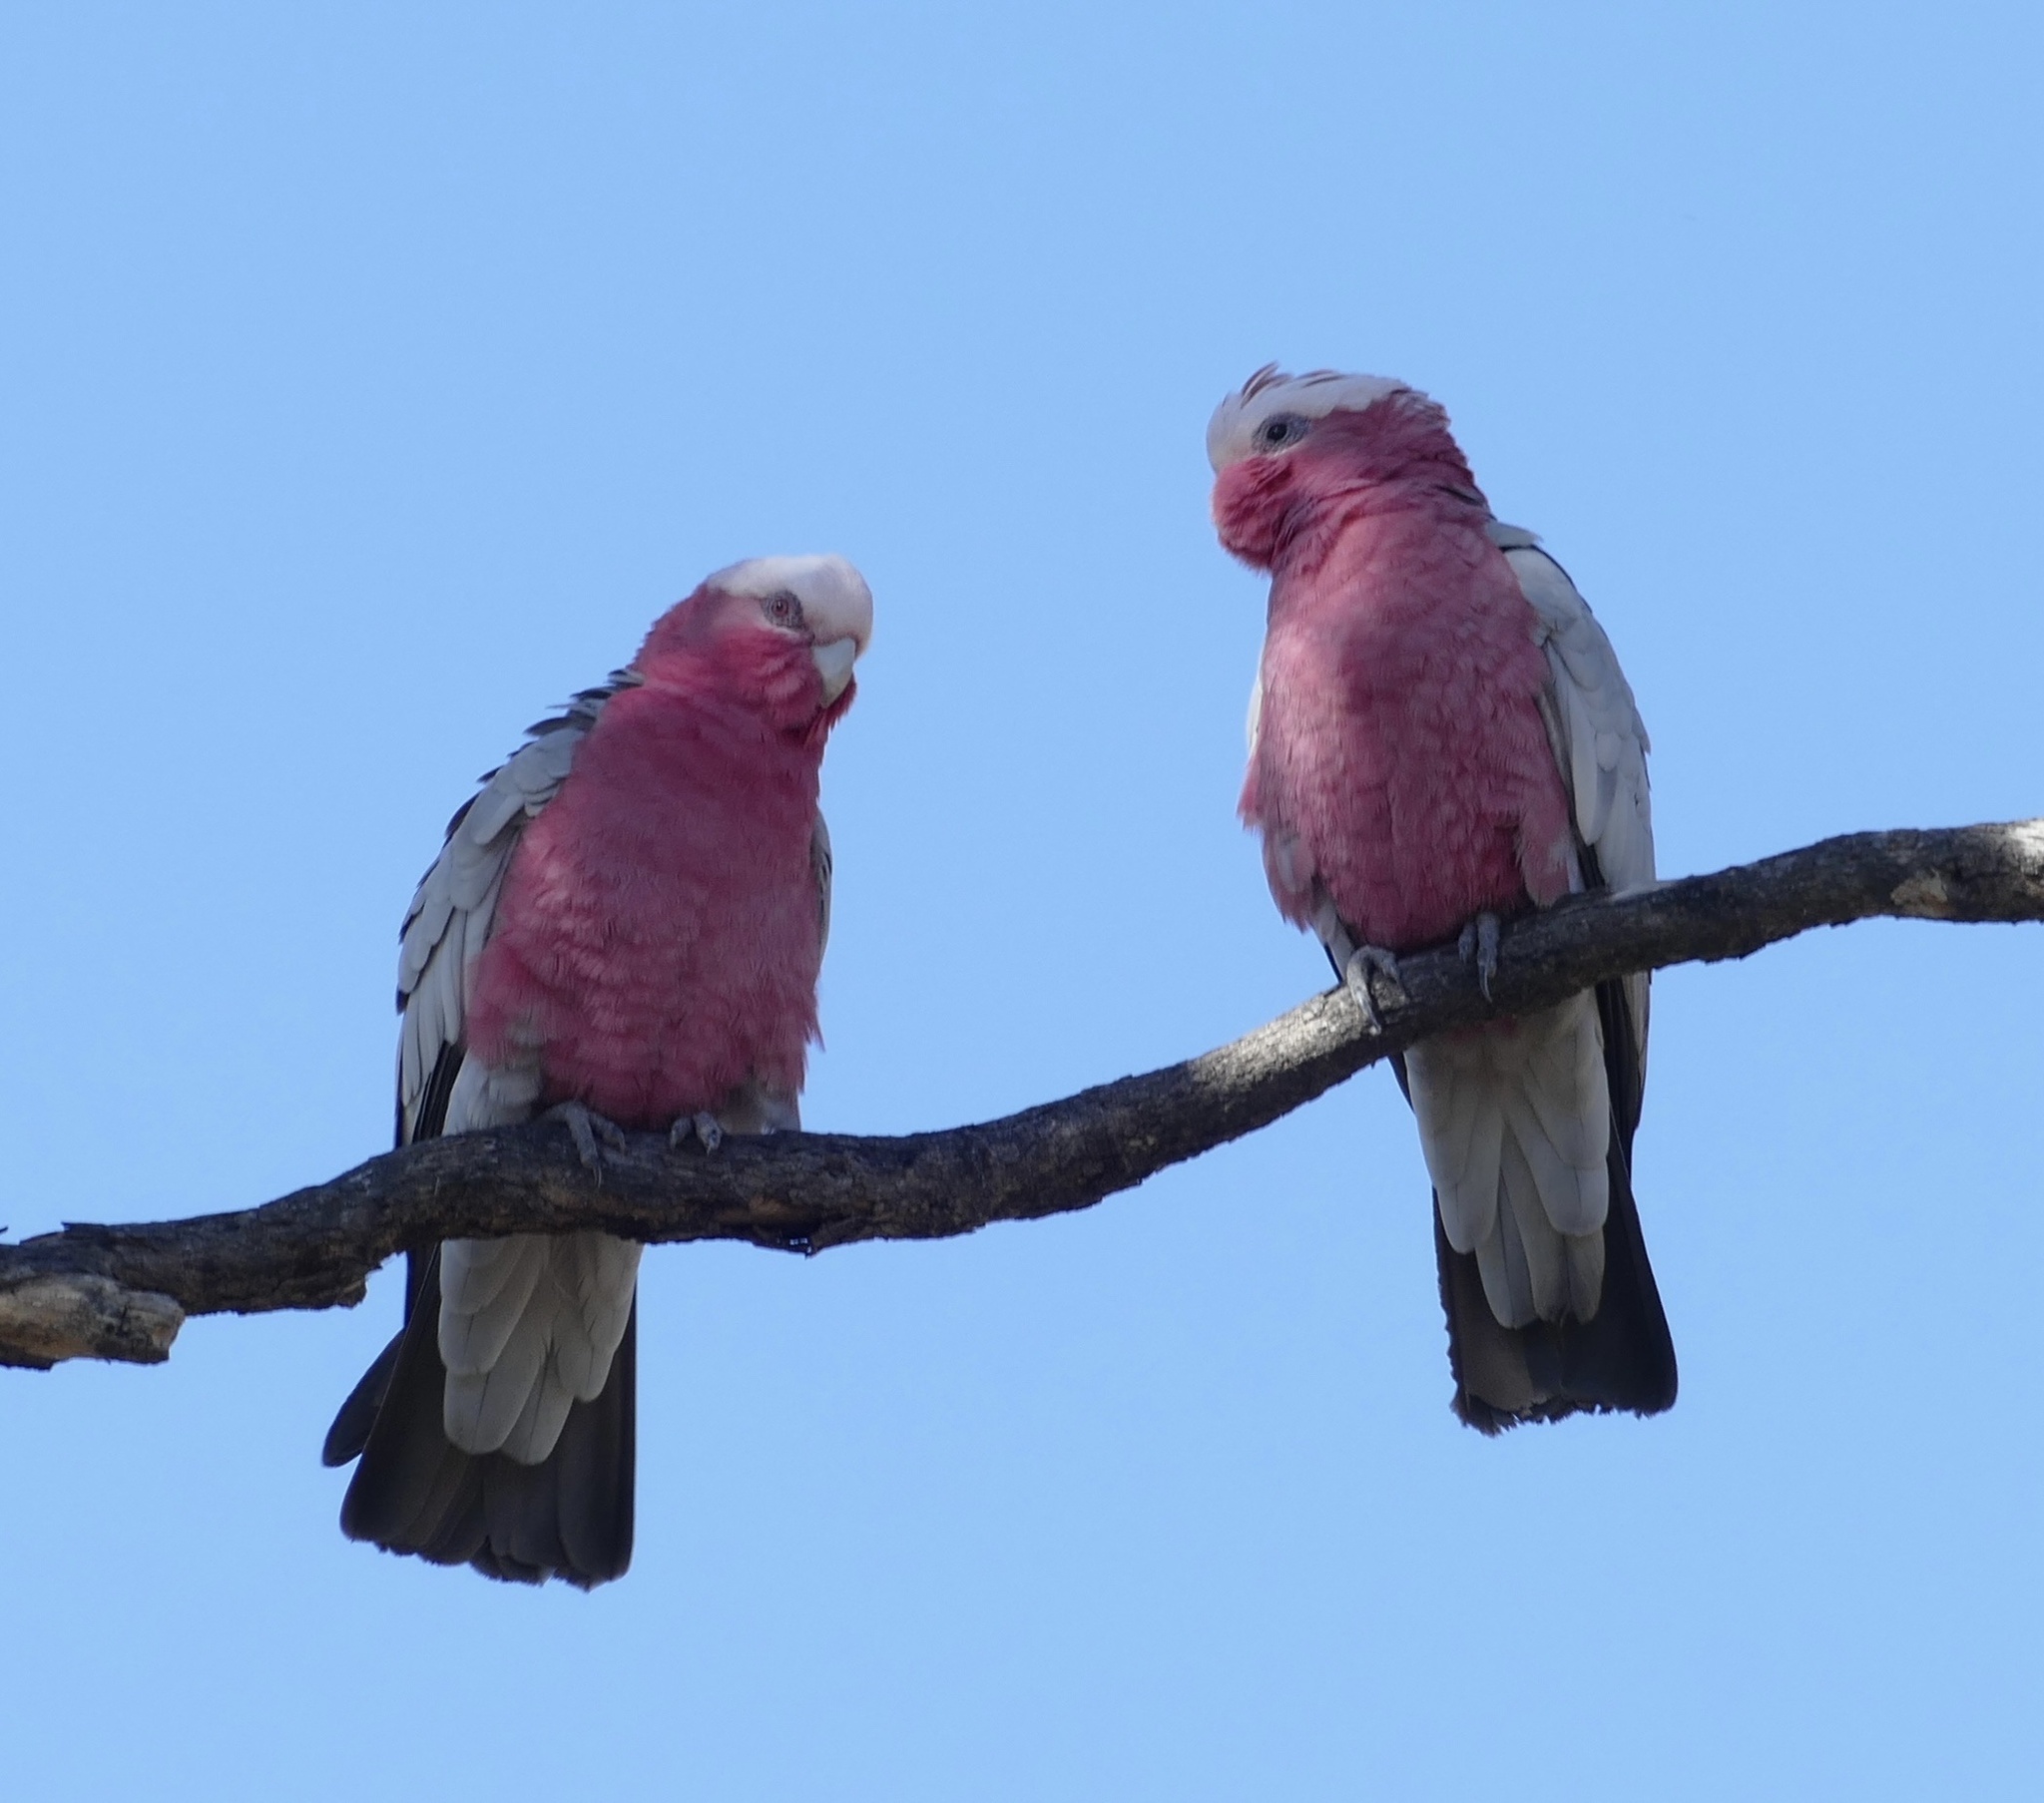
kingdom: Animalia
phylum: Chordata
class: Aves
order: Psittaciformes
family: Psittacidae
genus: Eolophus
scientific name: Eolophus roseicapilla
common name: Galah
